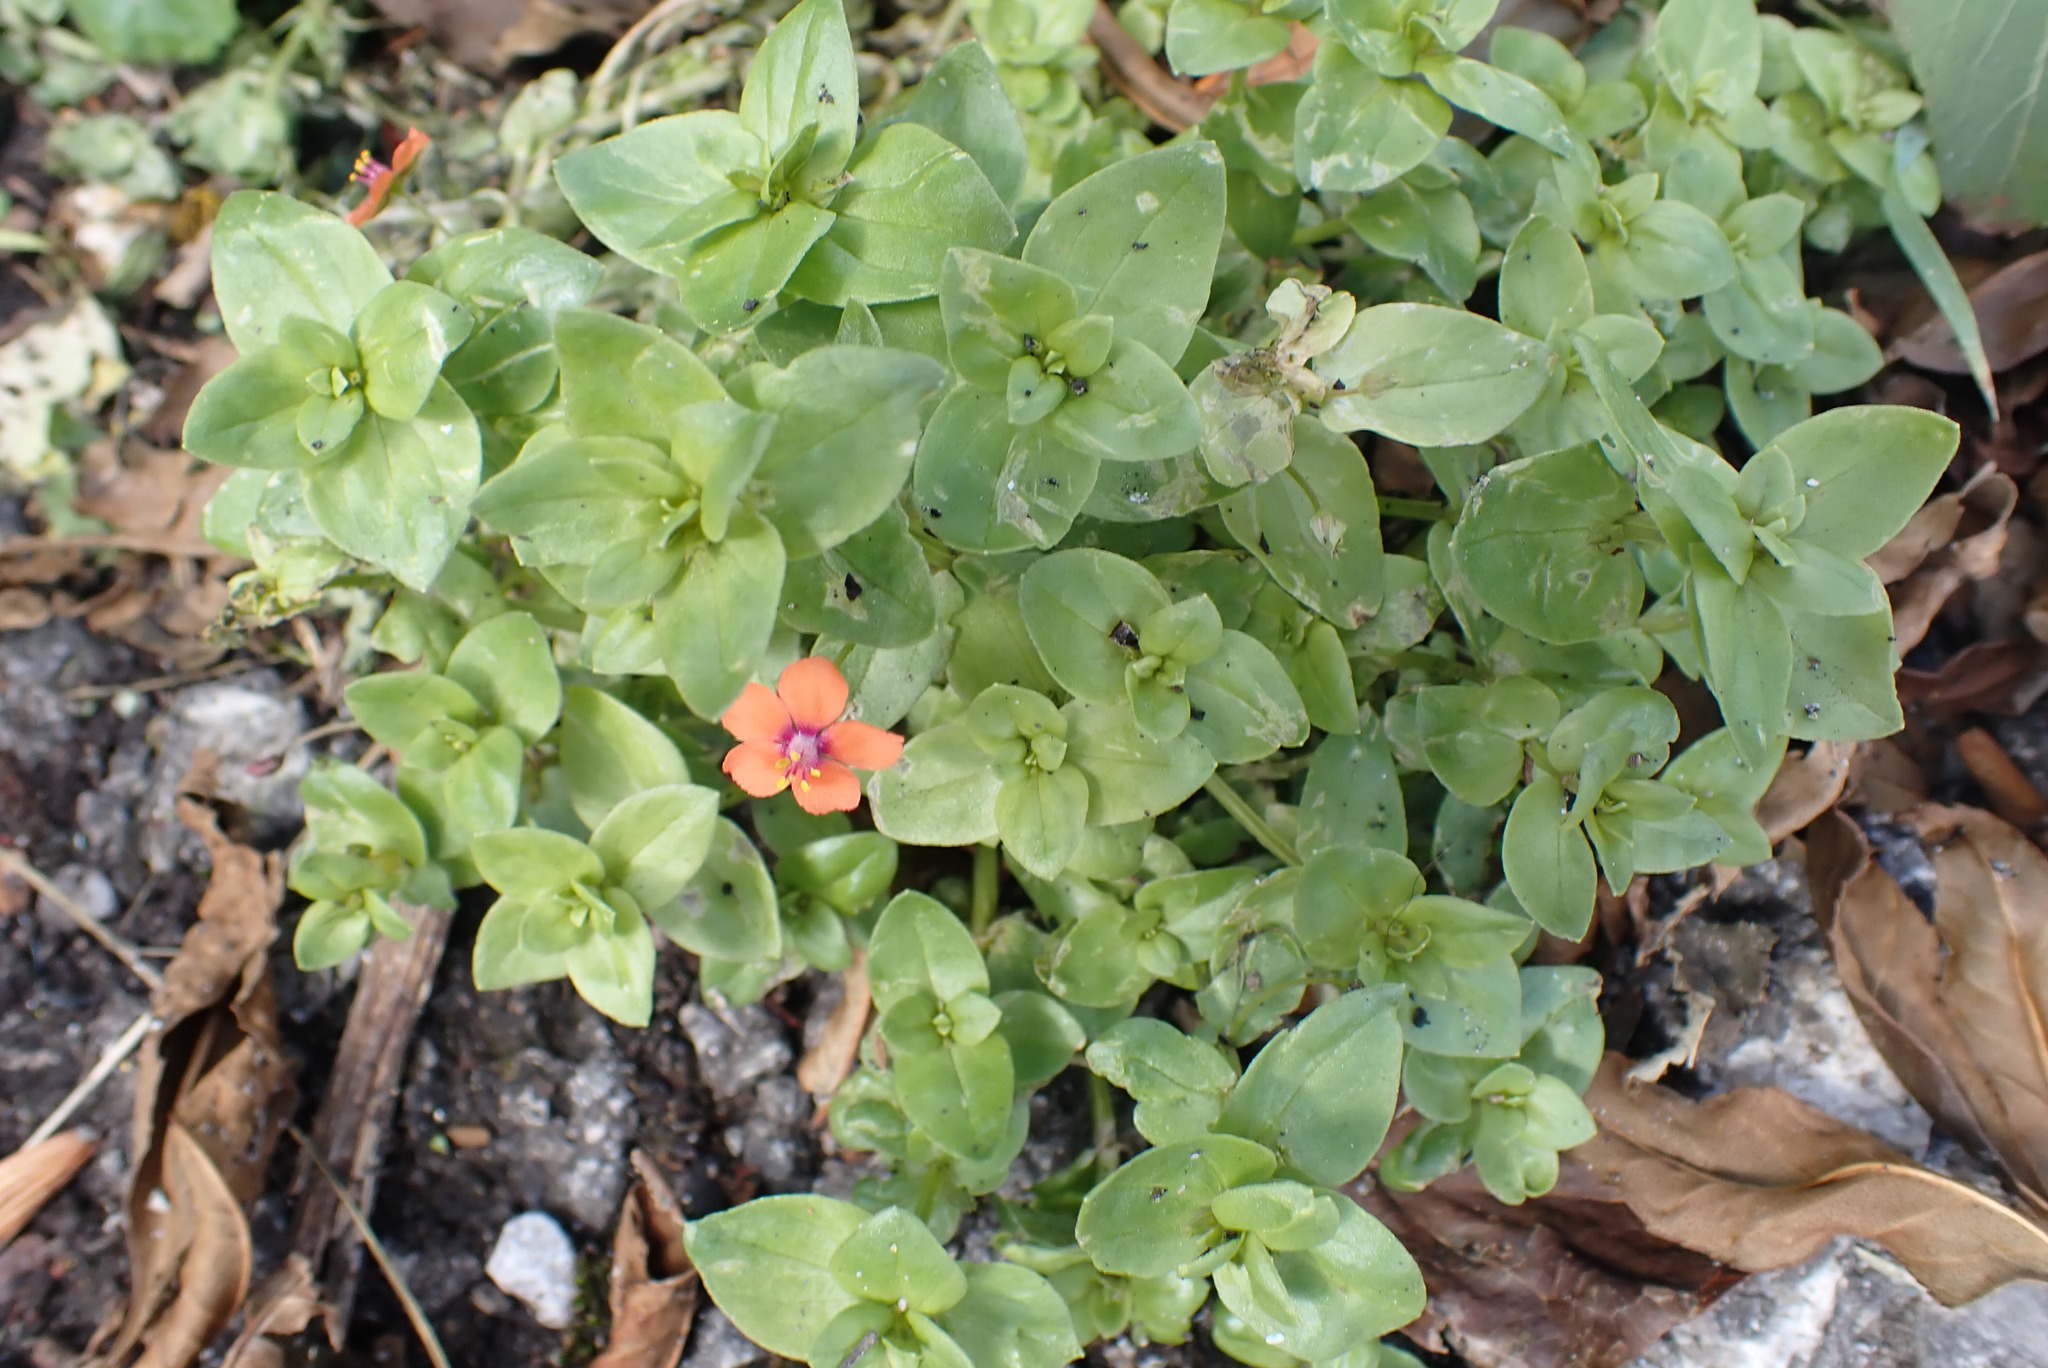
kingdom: Plantae
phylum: Tracheophyta
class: Magnoliopsida
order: Ericales
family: Primulaceae
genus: Lysimachia
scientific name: Lysimachia arvensis
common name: Scarlet pimpernel
